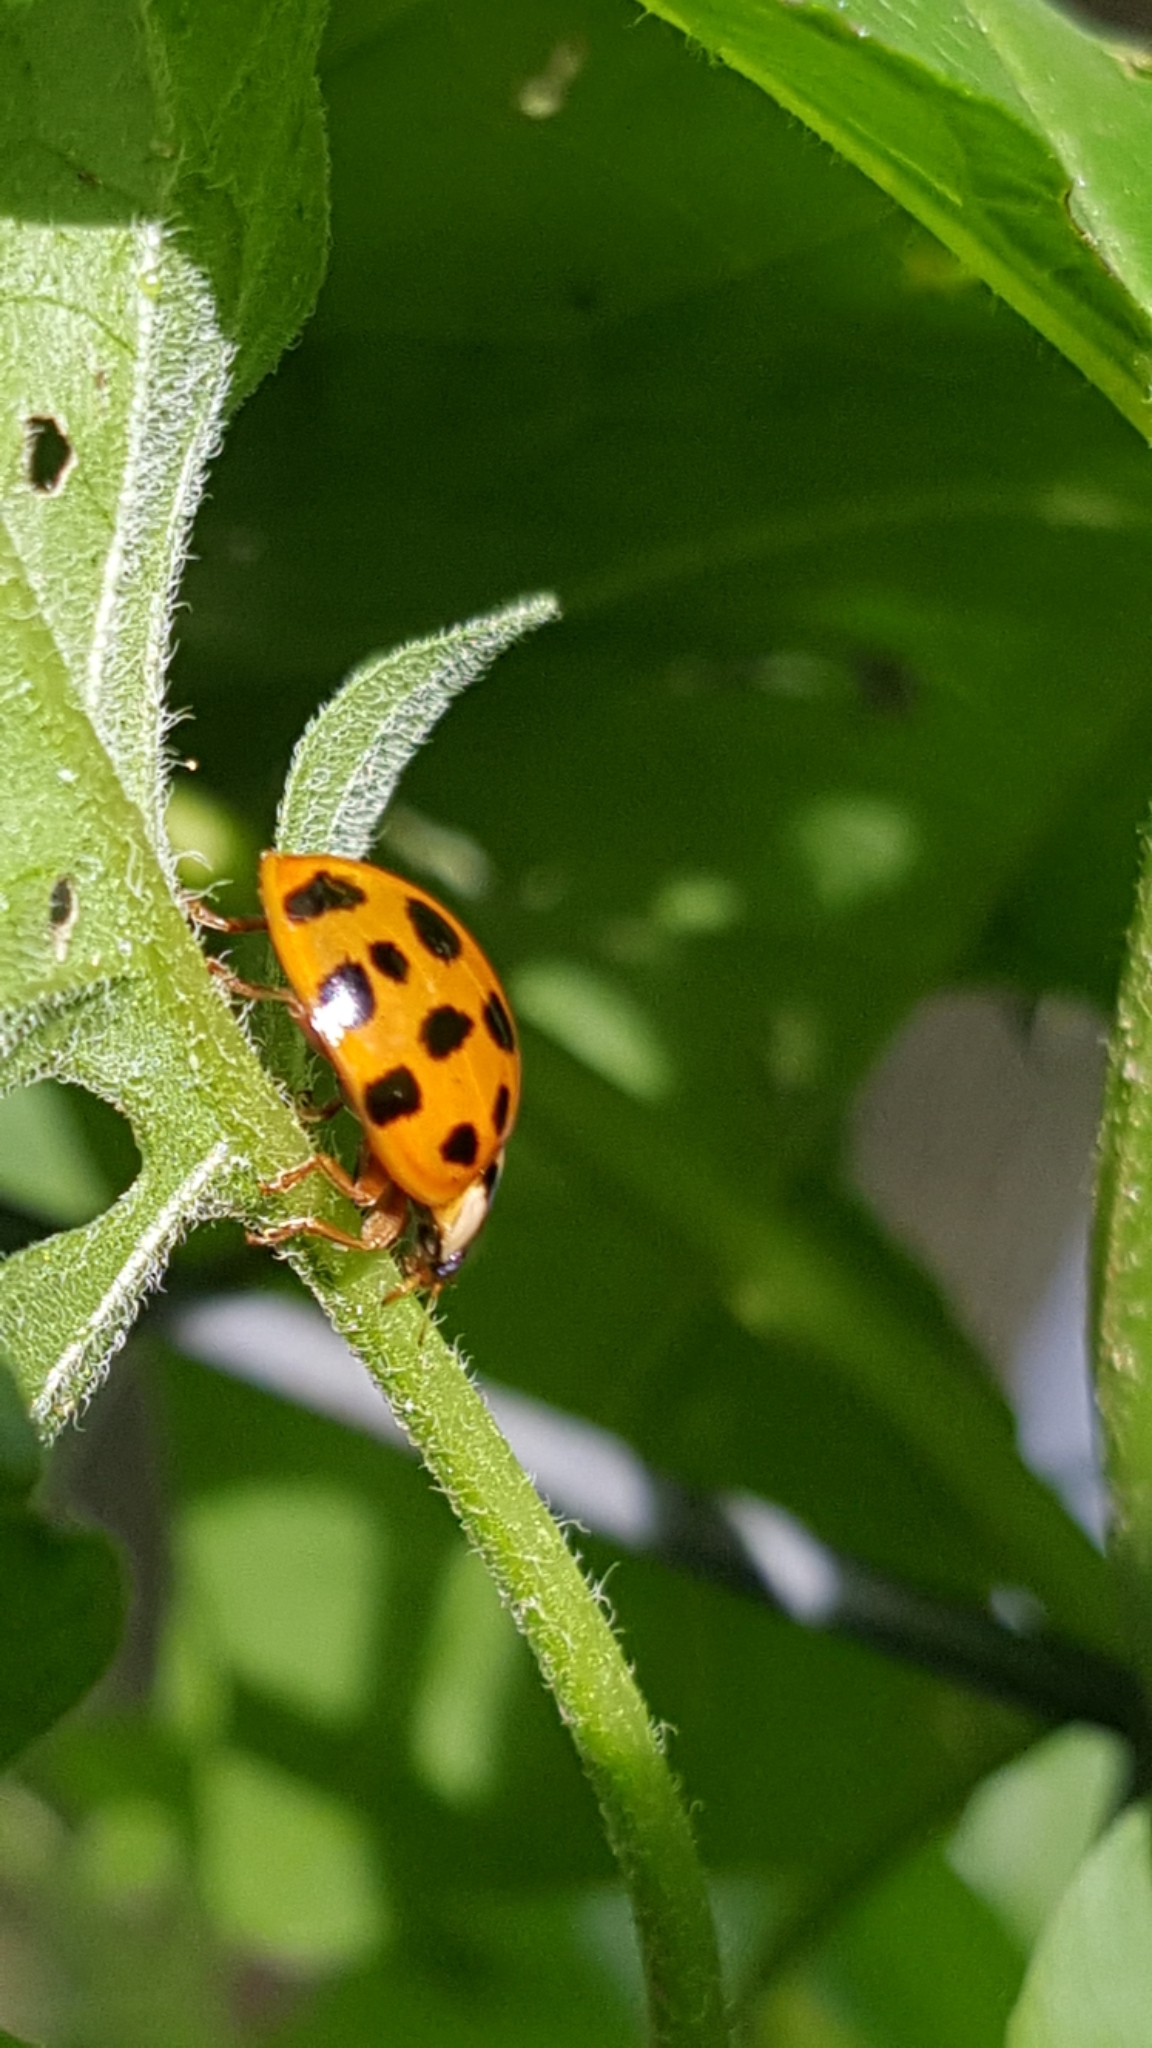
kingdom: Animalia
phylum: Arthropoda
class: Insecta
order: Coleoptera
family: Coccinellidae
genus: Harmonia
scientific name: Harmonia axyridis
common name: Harlequin ladybird
